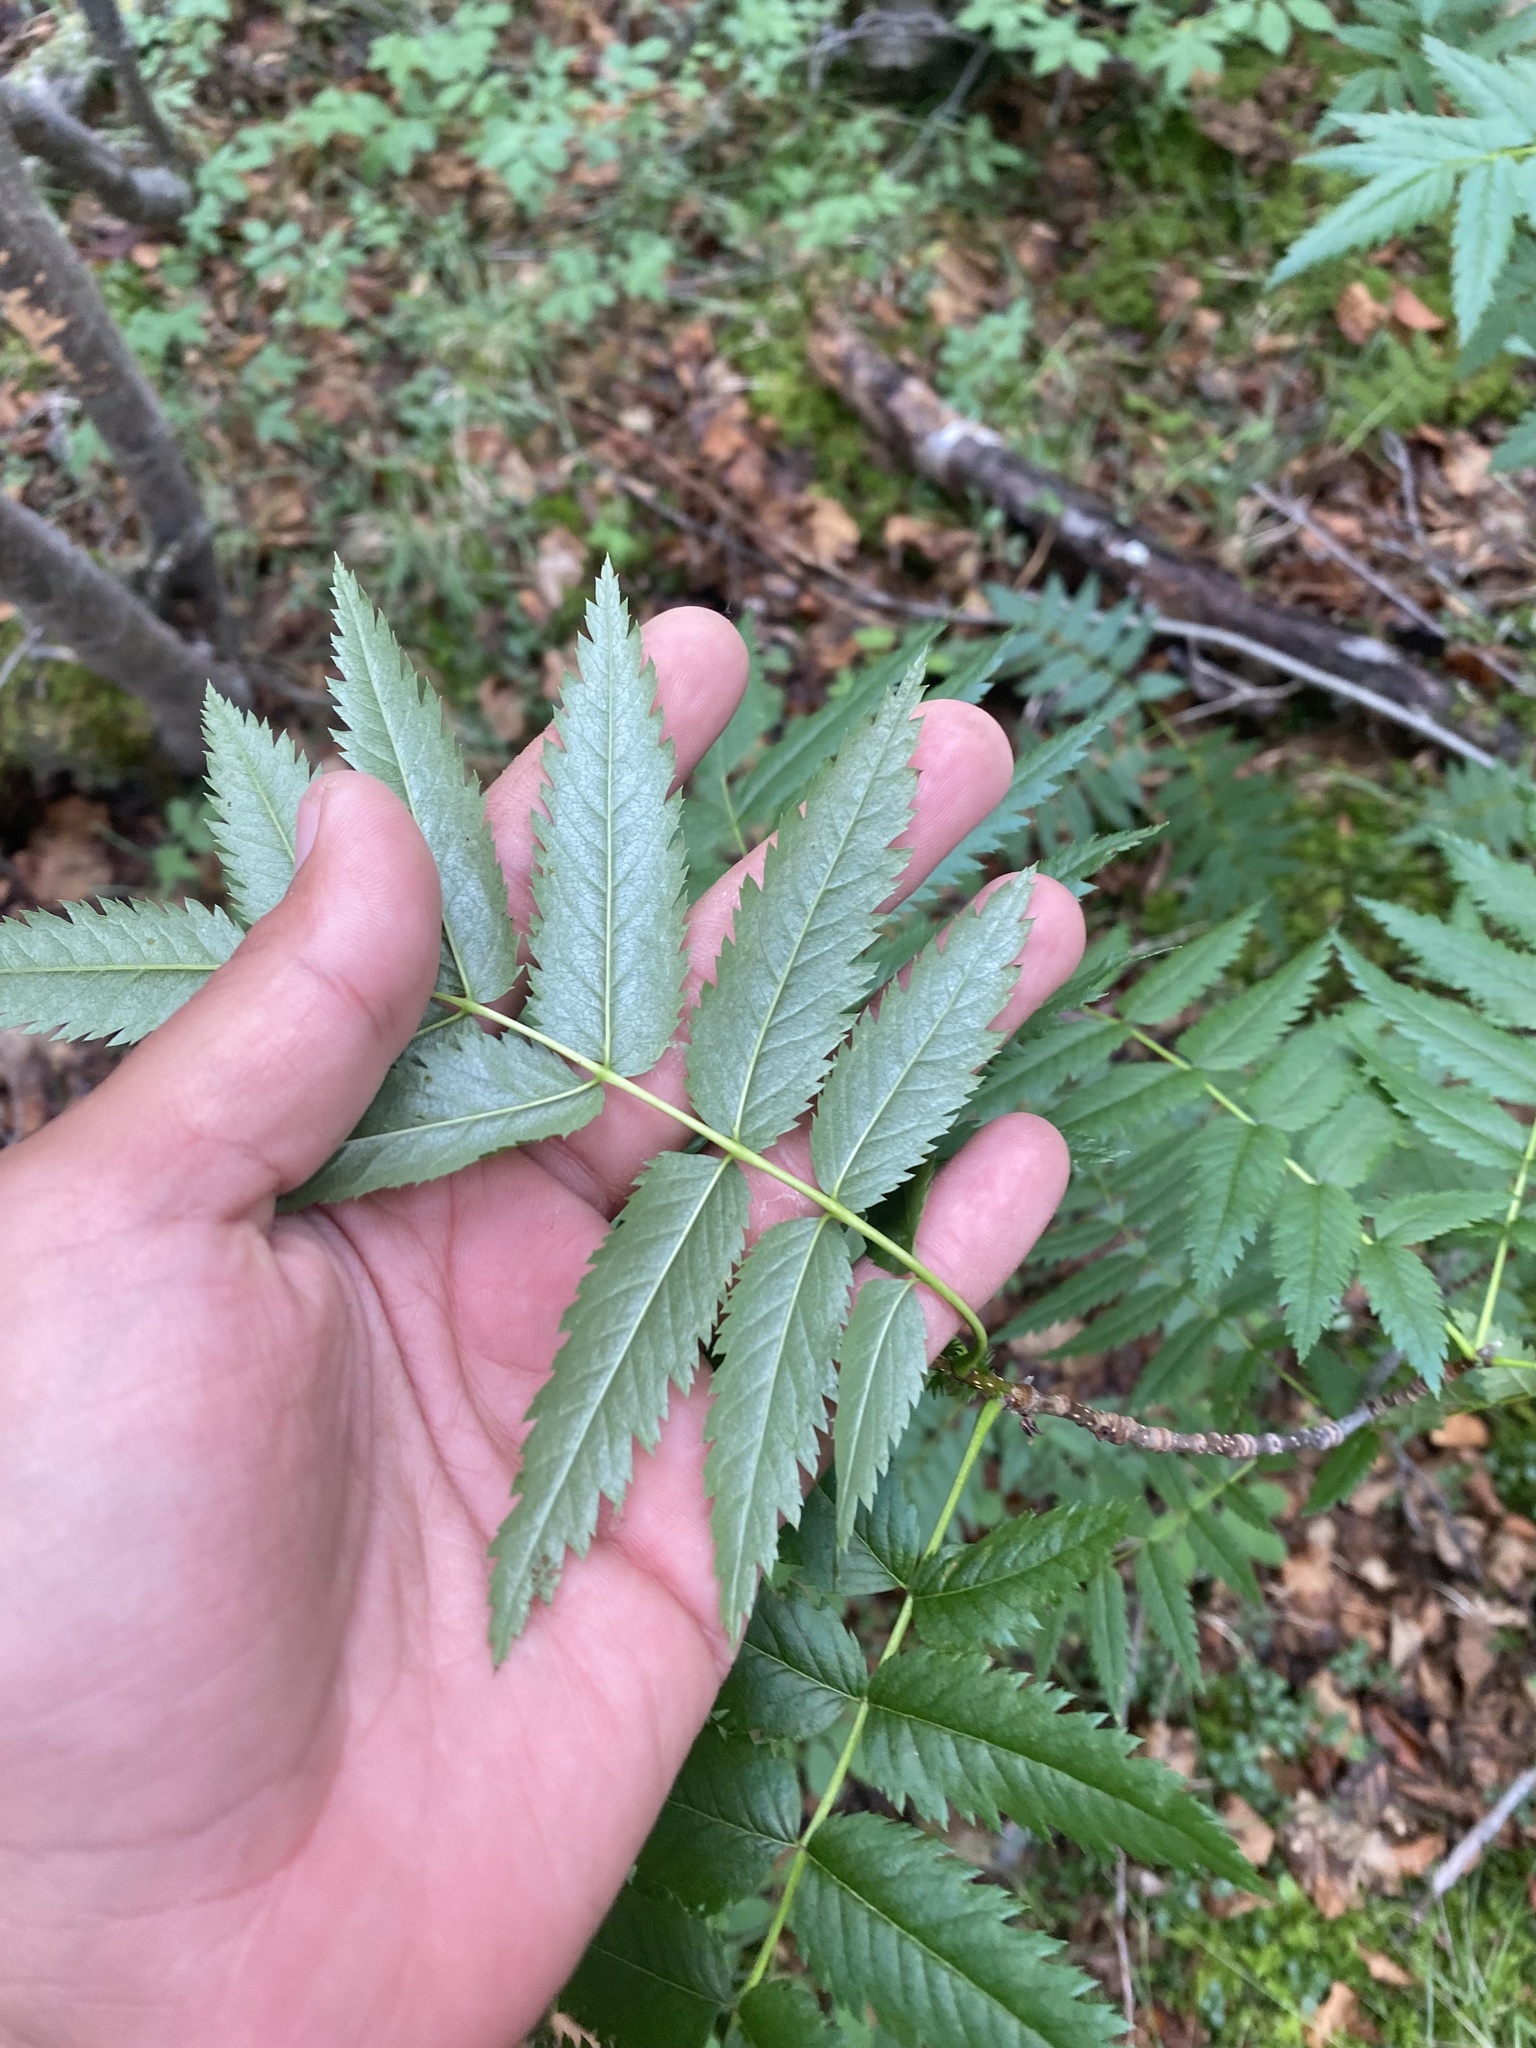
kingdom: Plantae
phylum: Tracheophyta
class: Magnoliopsida
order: Rosales
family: Rosaceae
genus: Sorbus
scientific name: Sorbus aucuparia
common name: Rowan
